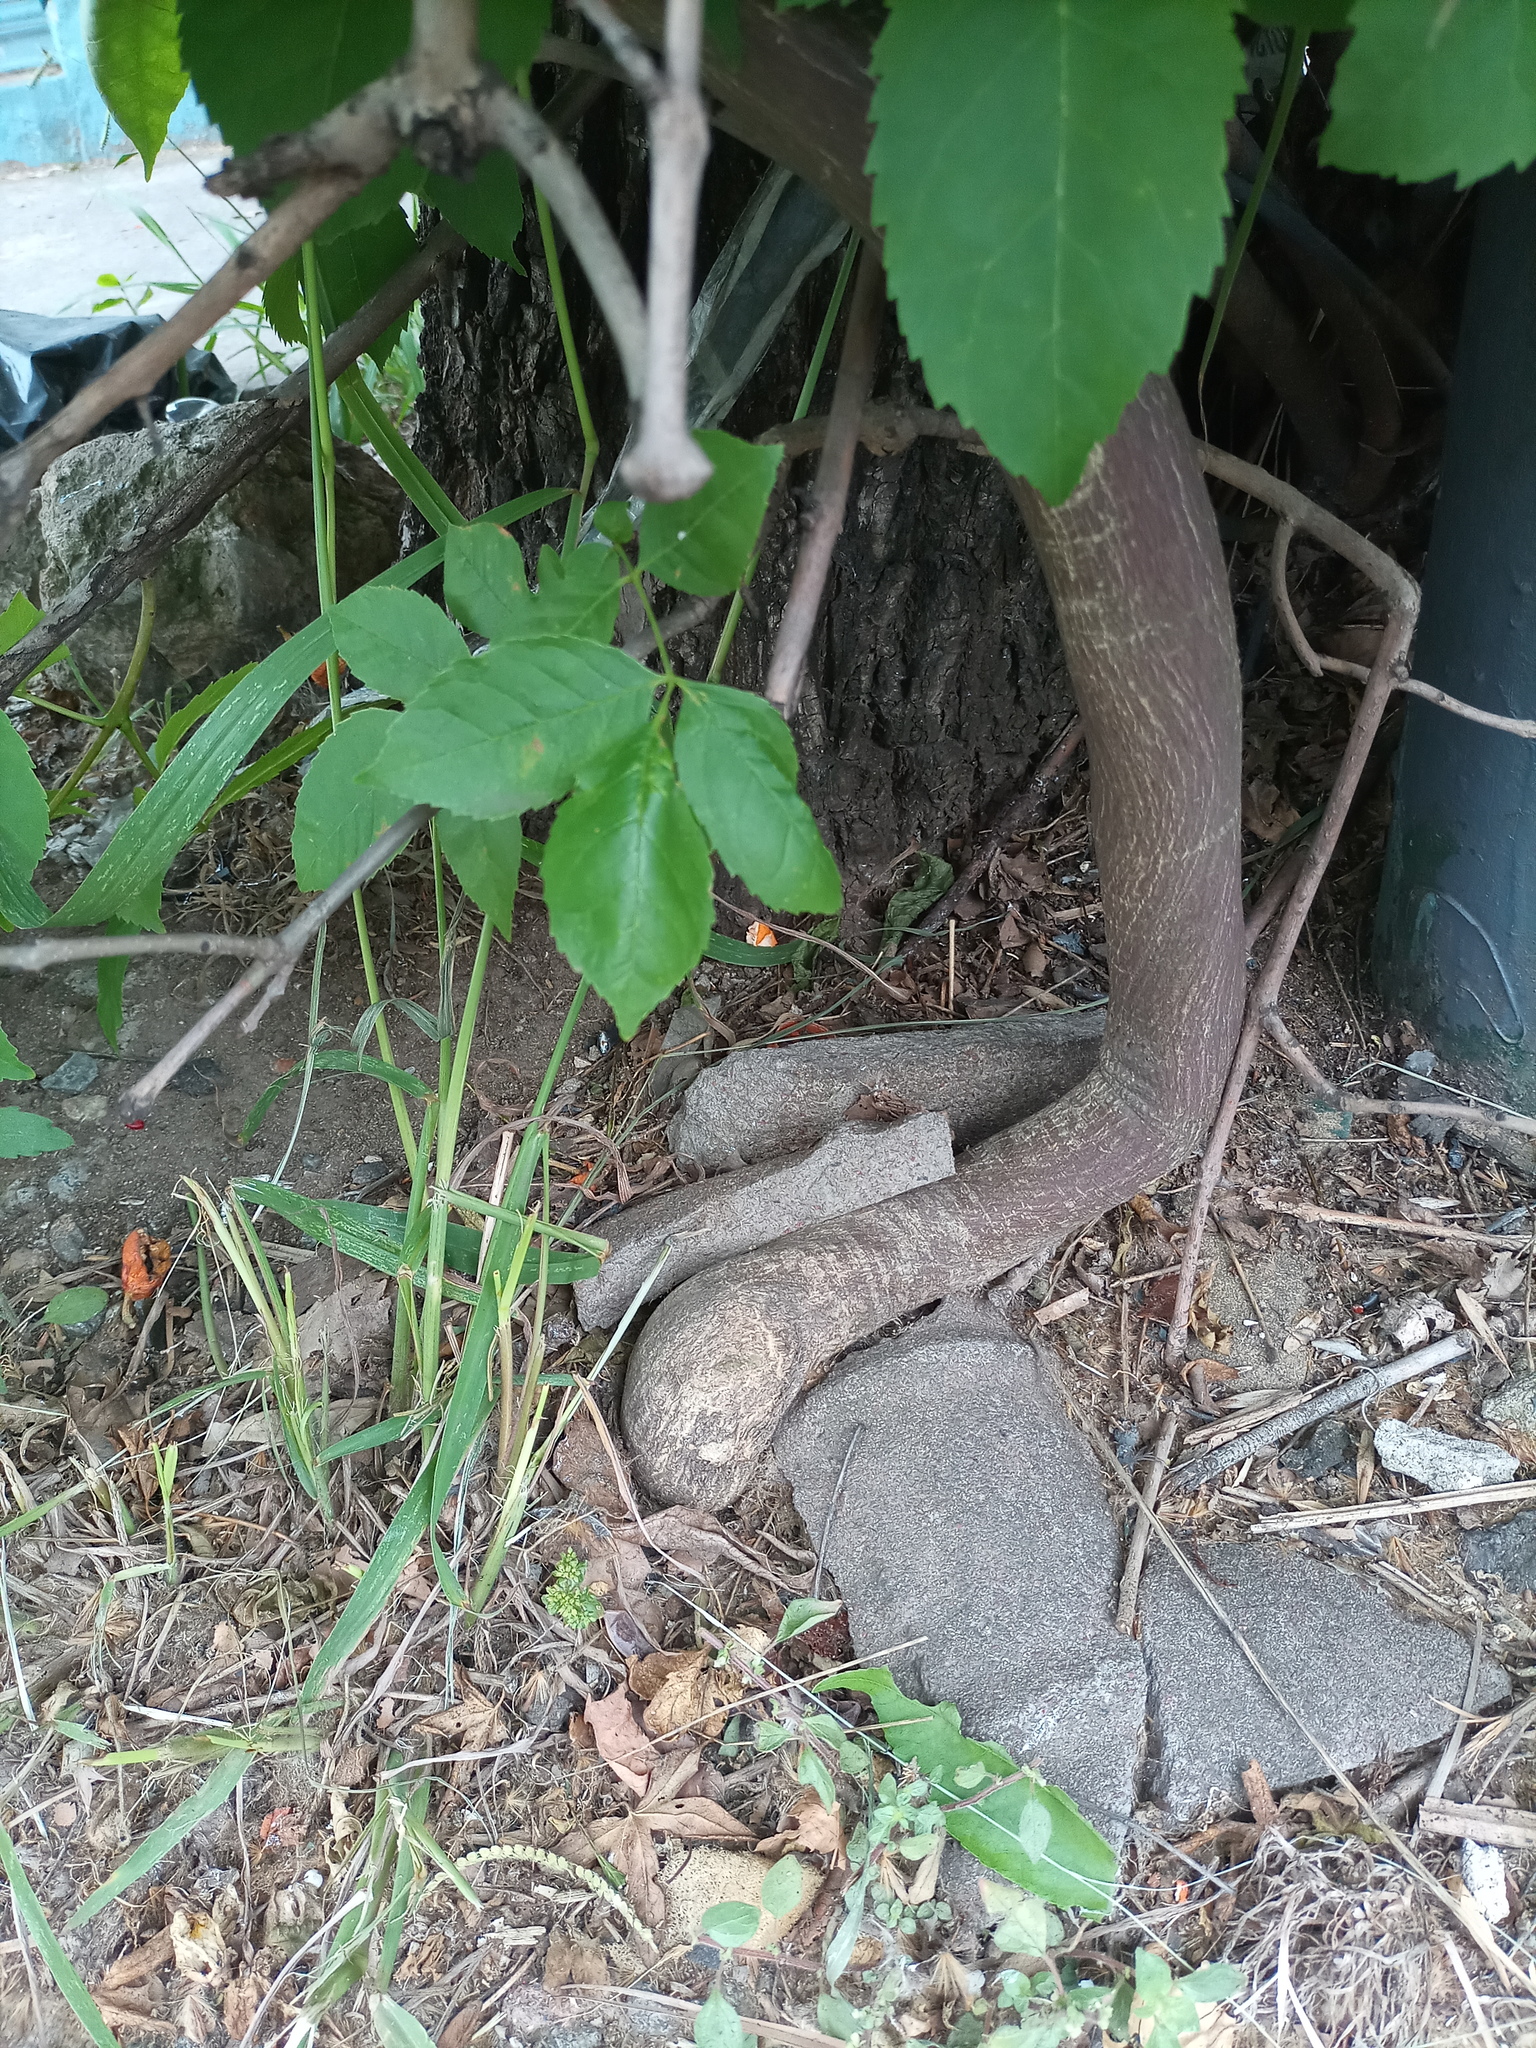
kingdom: Plantae
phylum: Tracheophyta
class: Magnoliopsida
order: Malpighiales
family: Passifloraceae
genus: Passiflora
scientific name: Passiflora caerulea
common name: Blue passionflower
